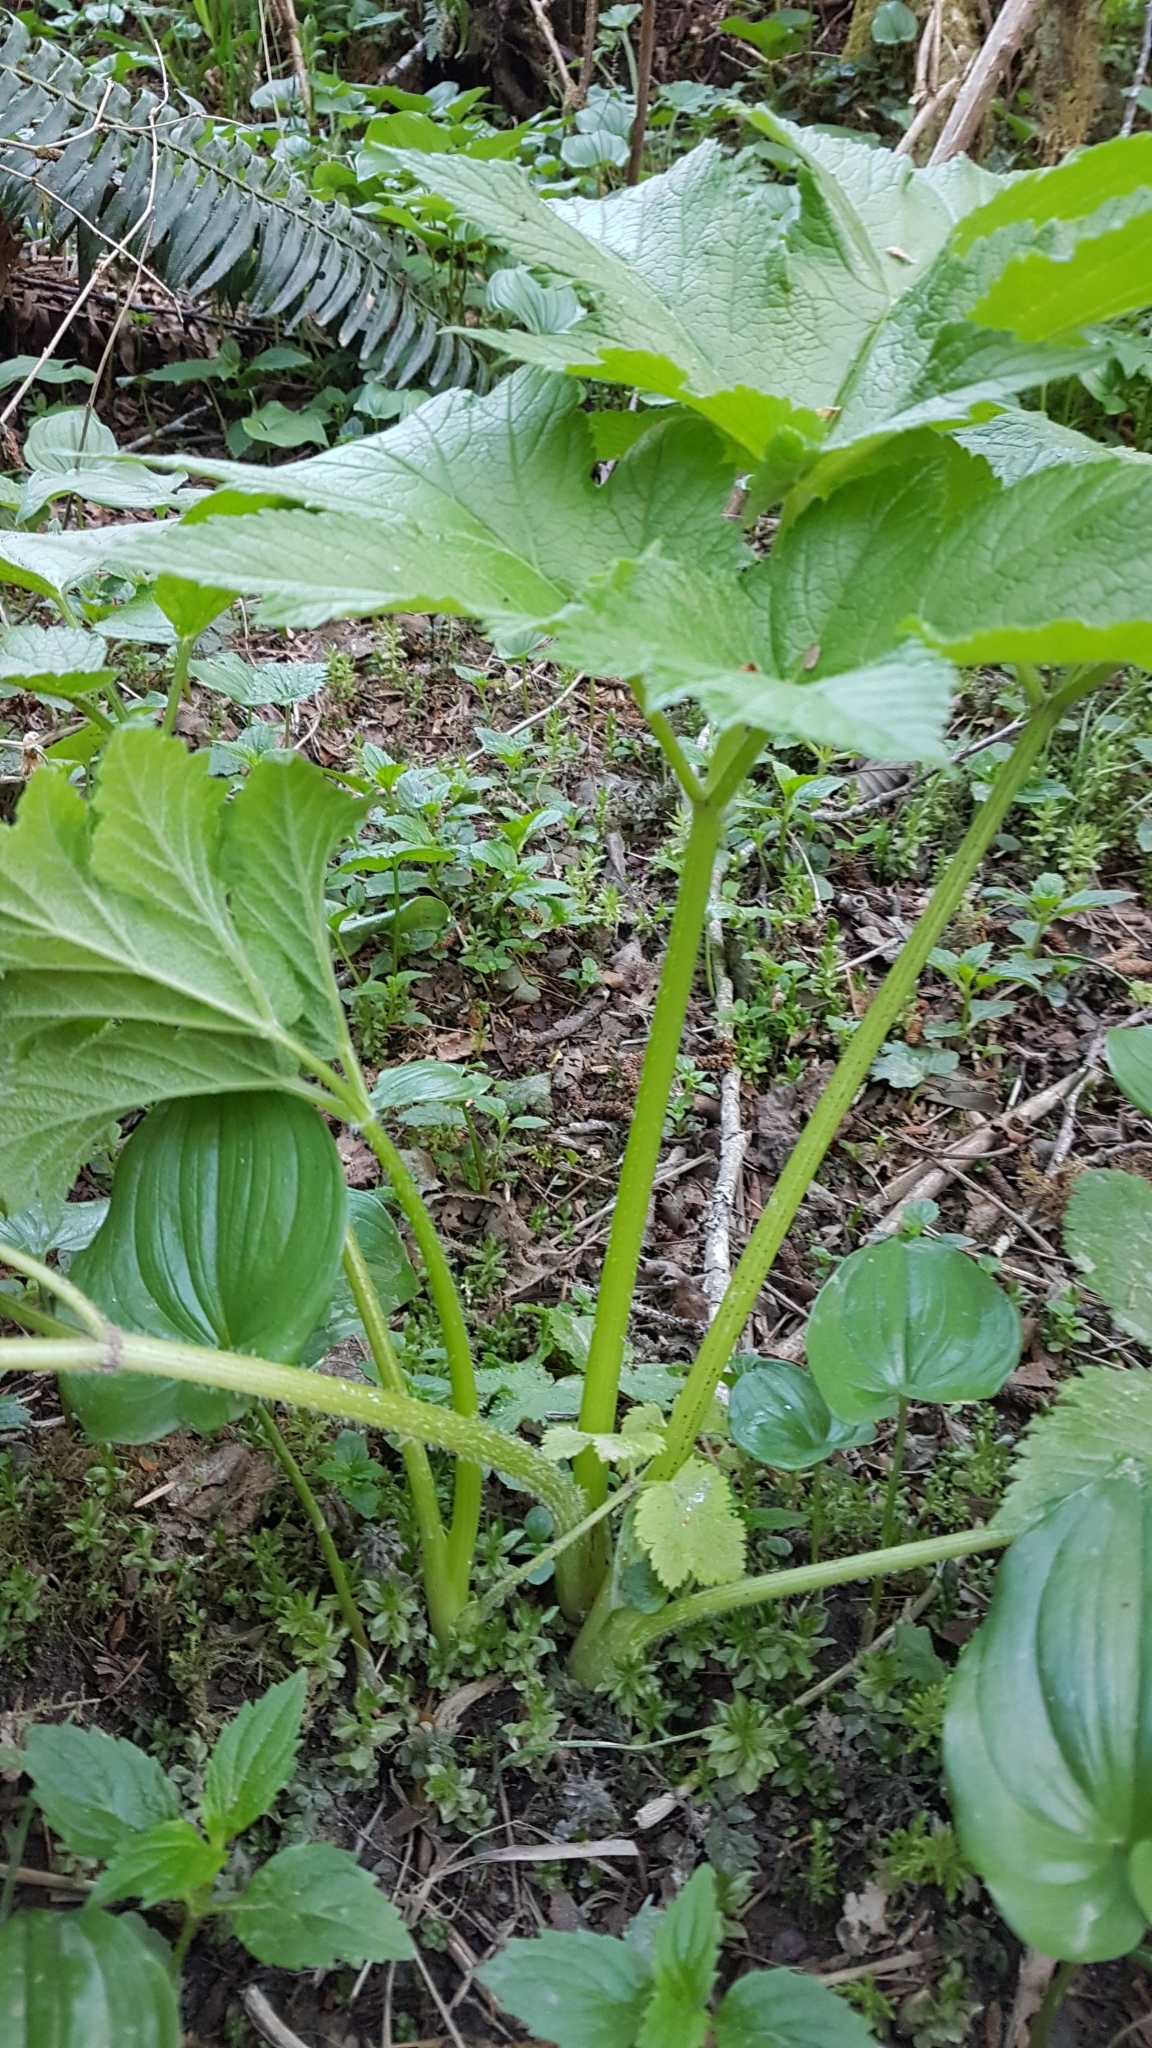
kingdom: Plantae
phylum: Tracheophyta
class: Magnoliopsida
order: Apiales
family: Apiaceae
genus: Heracleum
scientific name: Heracleum maximum
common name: American cow parsnip
